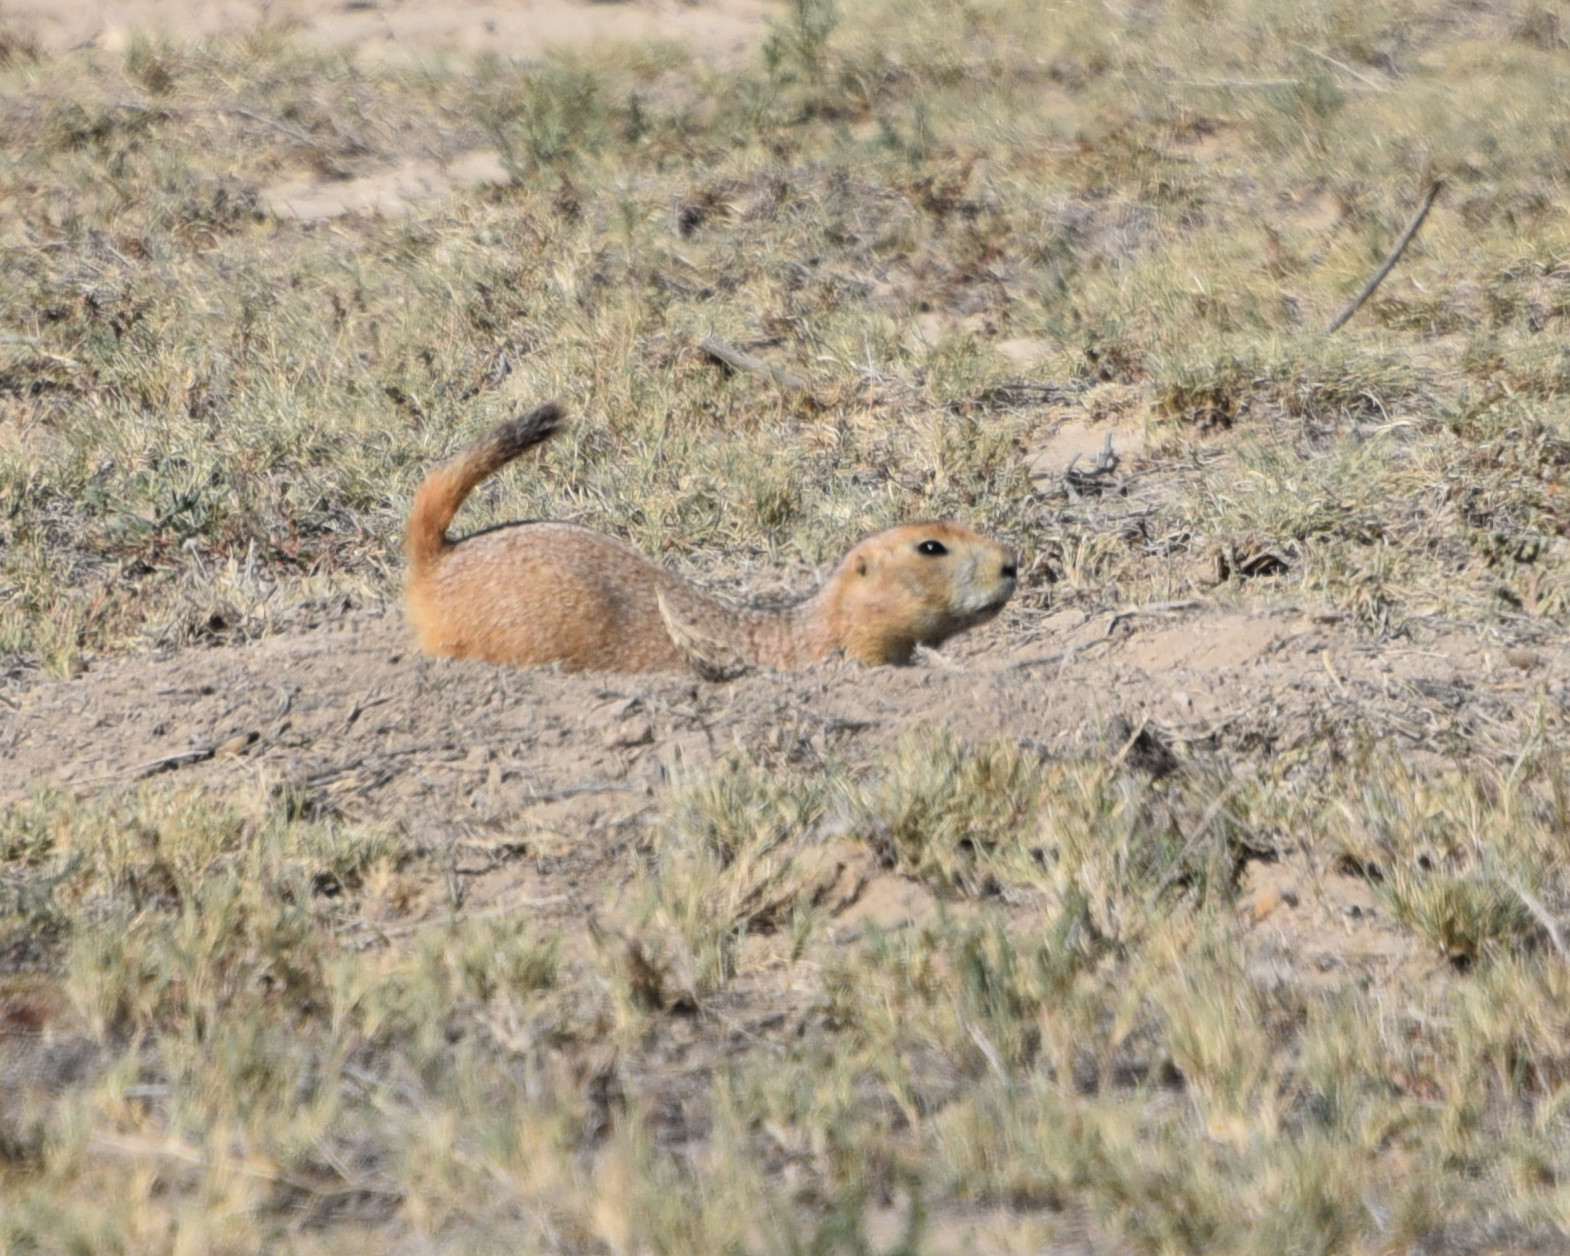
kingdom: Animalia
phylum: Chordata
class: Mammalia
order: Rodentia
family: Sciuridae
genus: Cynomys
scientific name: Cynomys ludovicianus
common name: Black-tailed prairie dog
